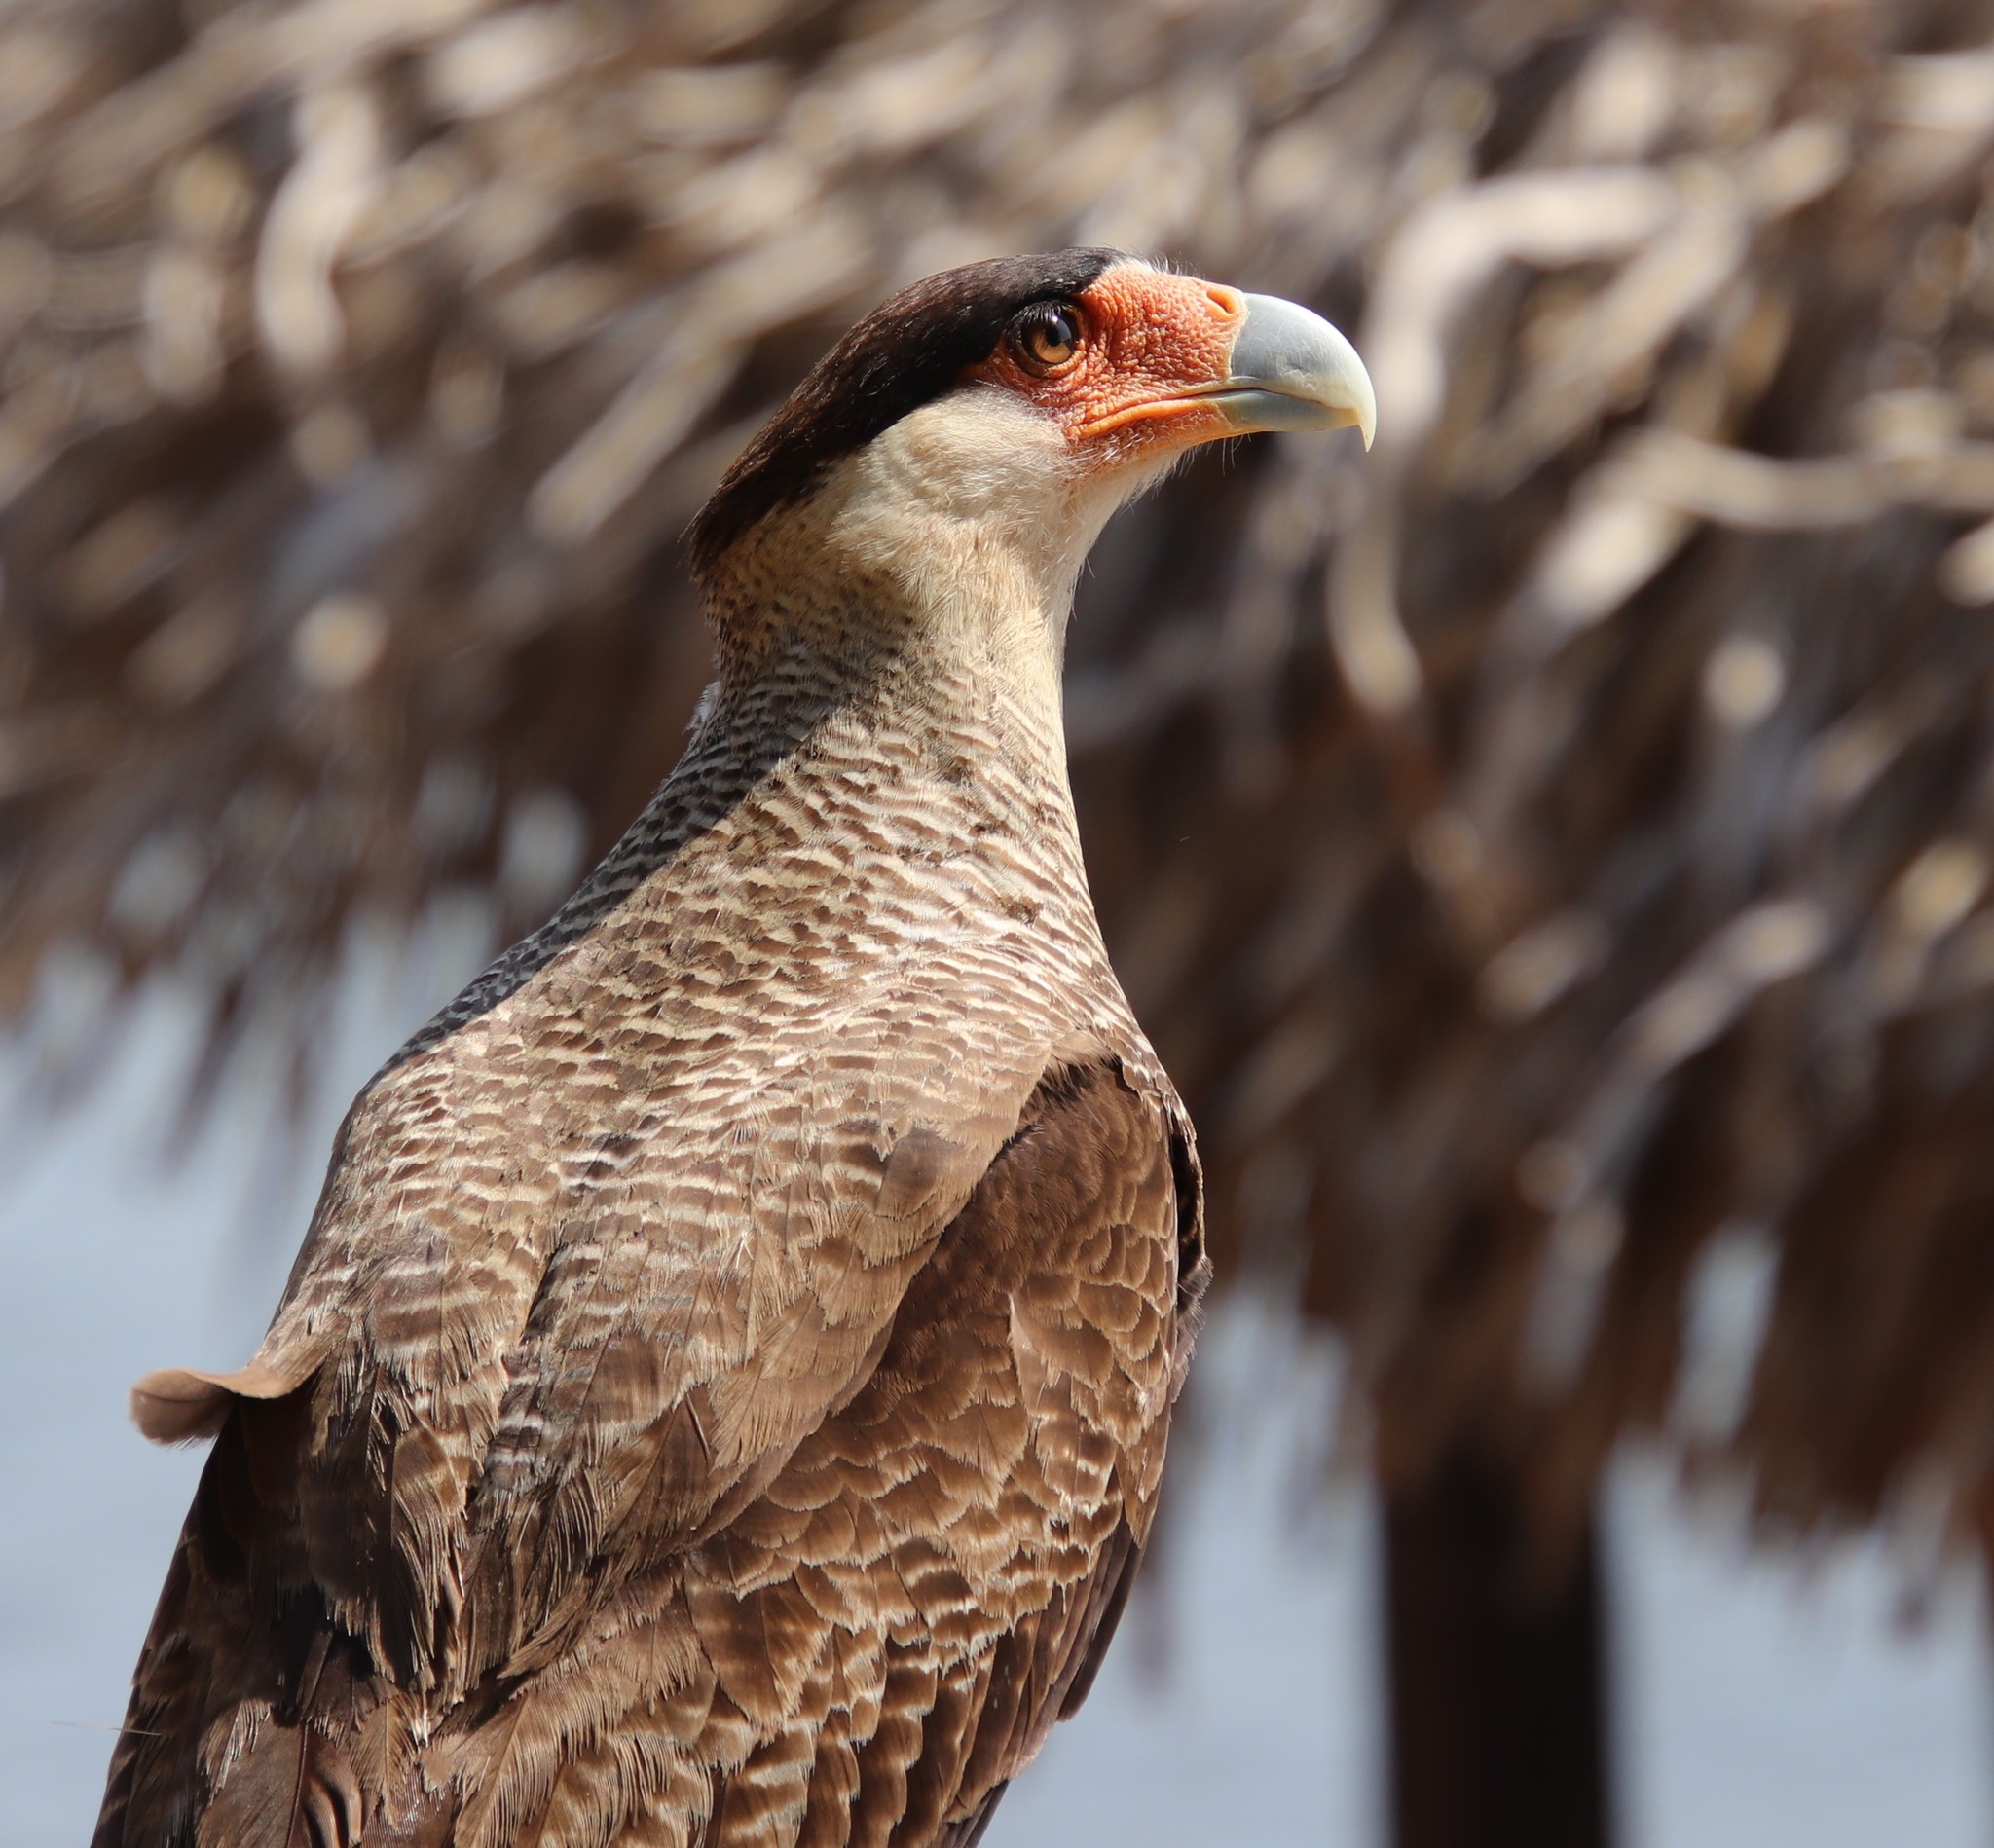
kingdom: Animalia
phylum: Chordata
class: Aves
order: Falconiformes
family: Falconidae
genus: Caracara
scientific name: Caracara plancus
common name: Southern caracara
